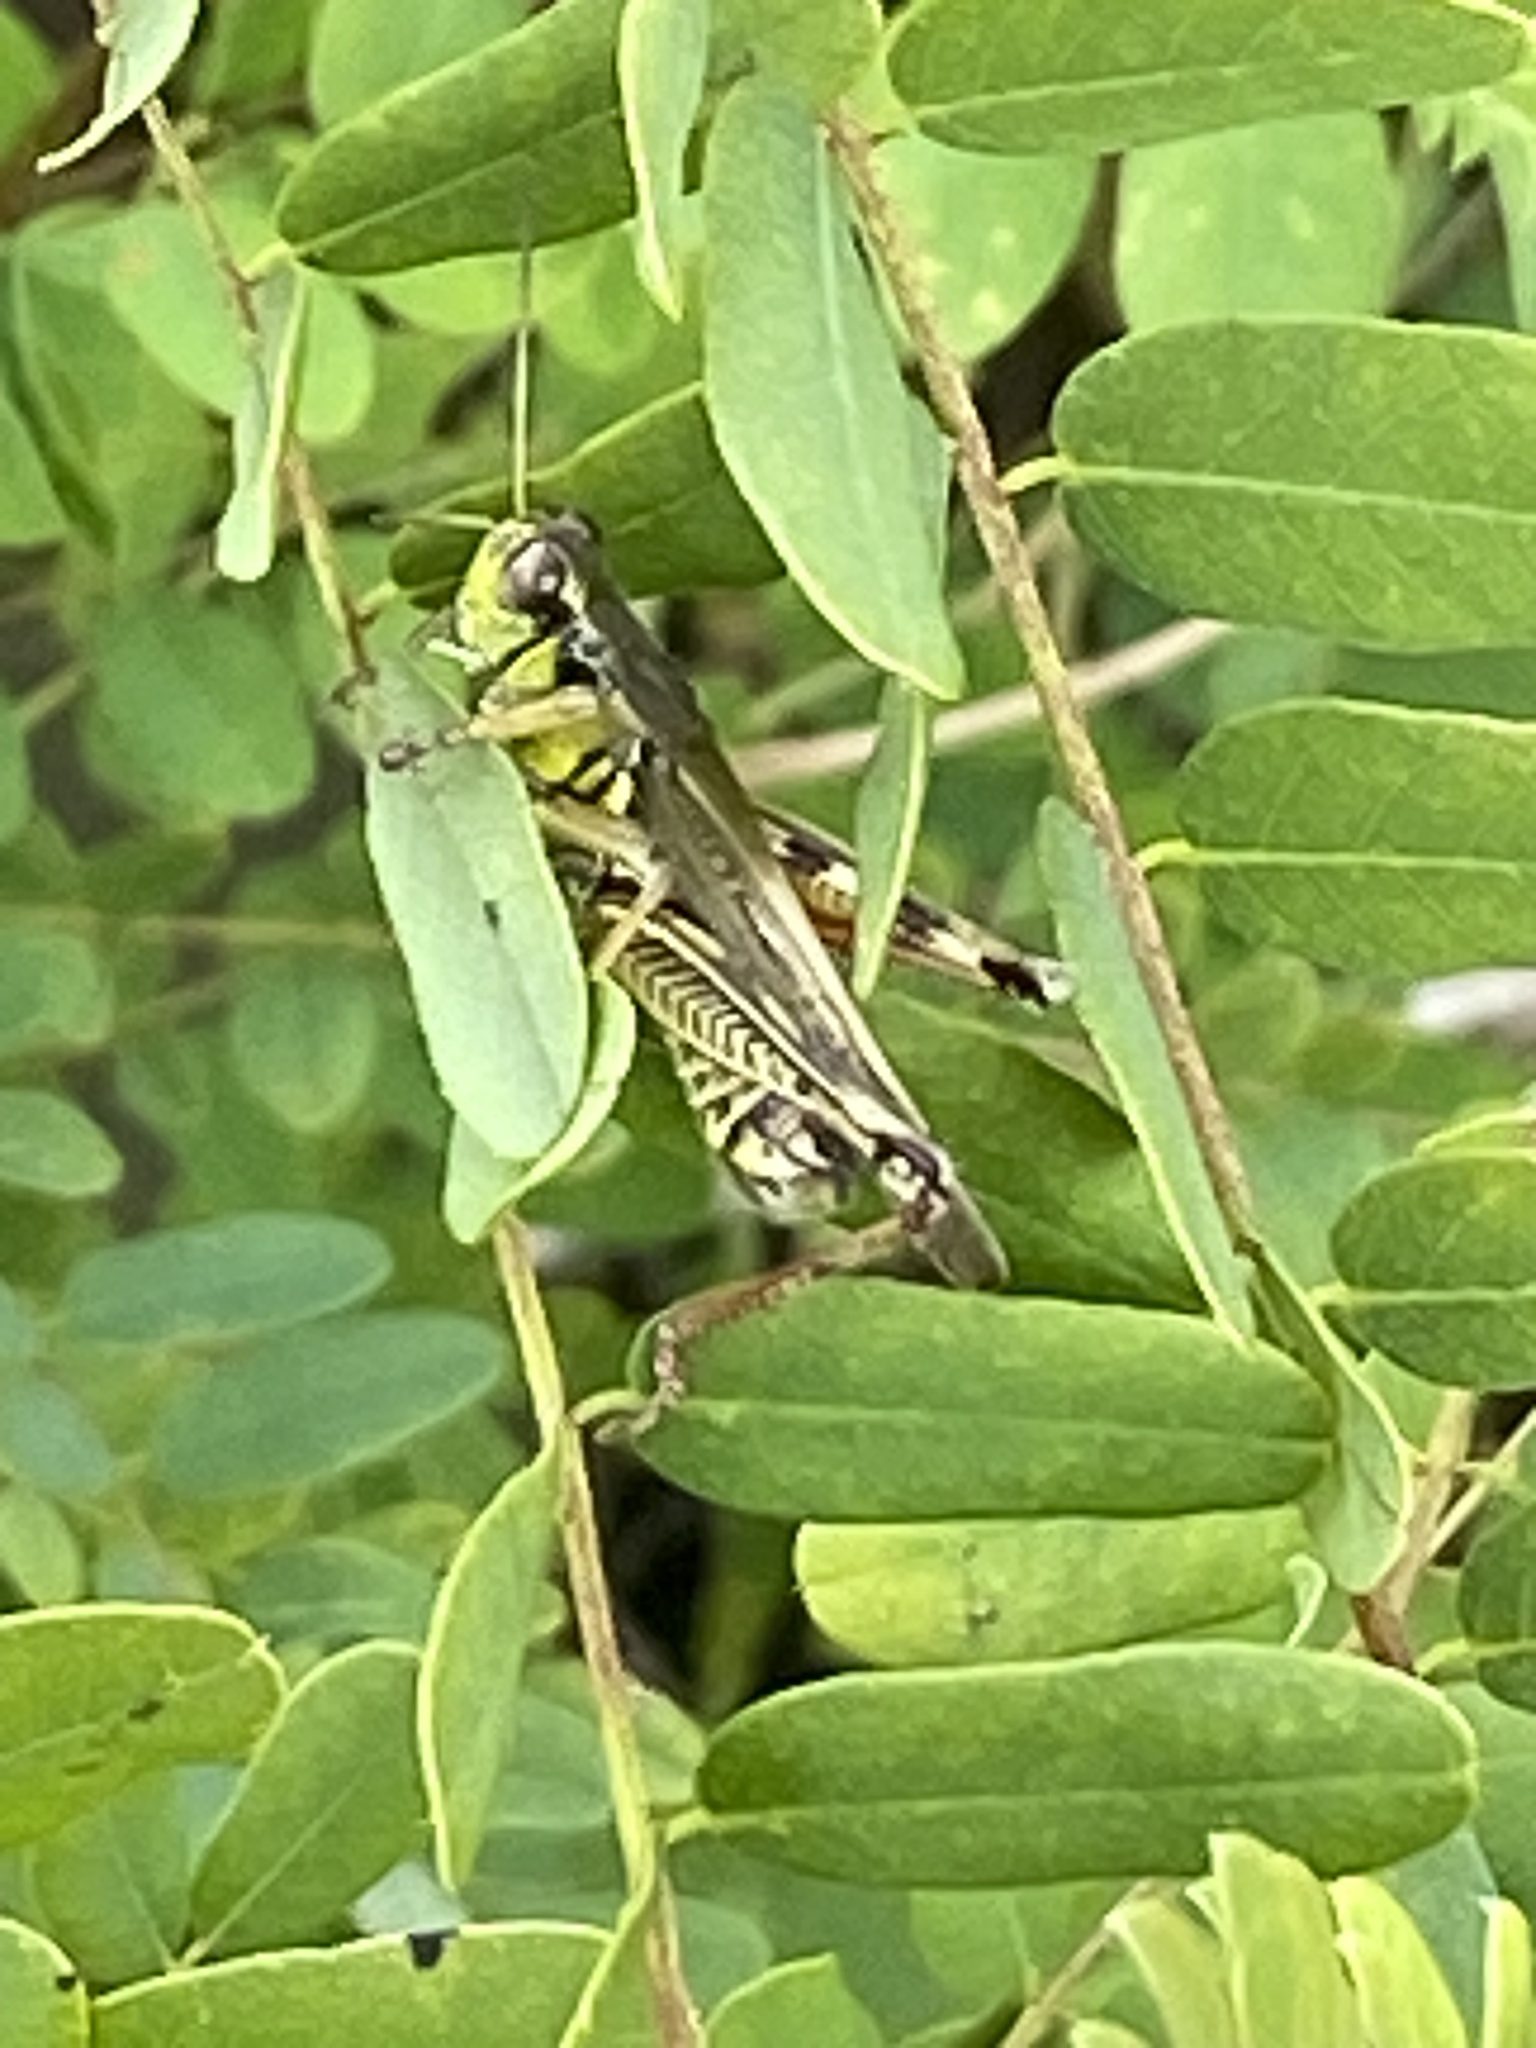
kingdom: Animalia
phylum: Arthropoda
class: Insecta
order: Orthoptera
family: Acrididae
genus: Melanoplus
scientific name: Melanoplus femurrubrum
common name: Red-legged grasshopper
